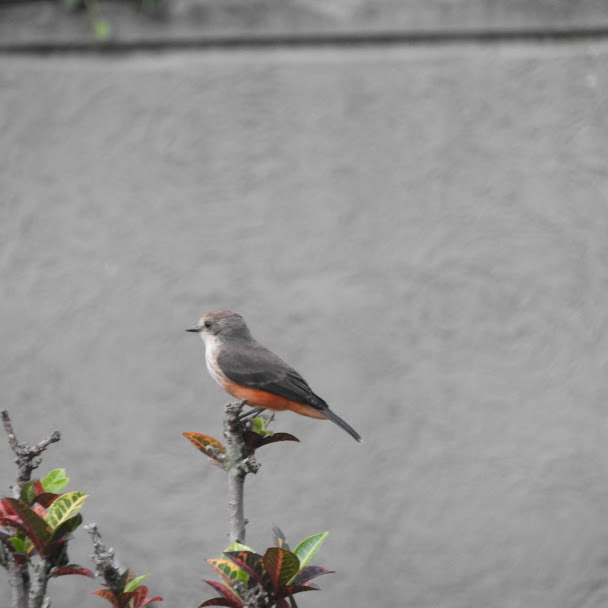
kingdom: Animalia
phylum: Chordata
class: Aves
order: Passeriformes
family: Tyrannidae
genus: Pyrocephalus
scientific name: Pyrocephalus rubinus
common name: Vermilion flycatcher
